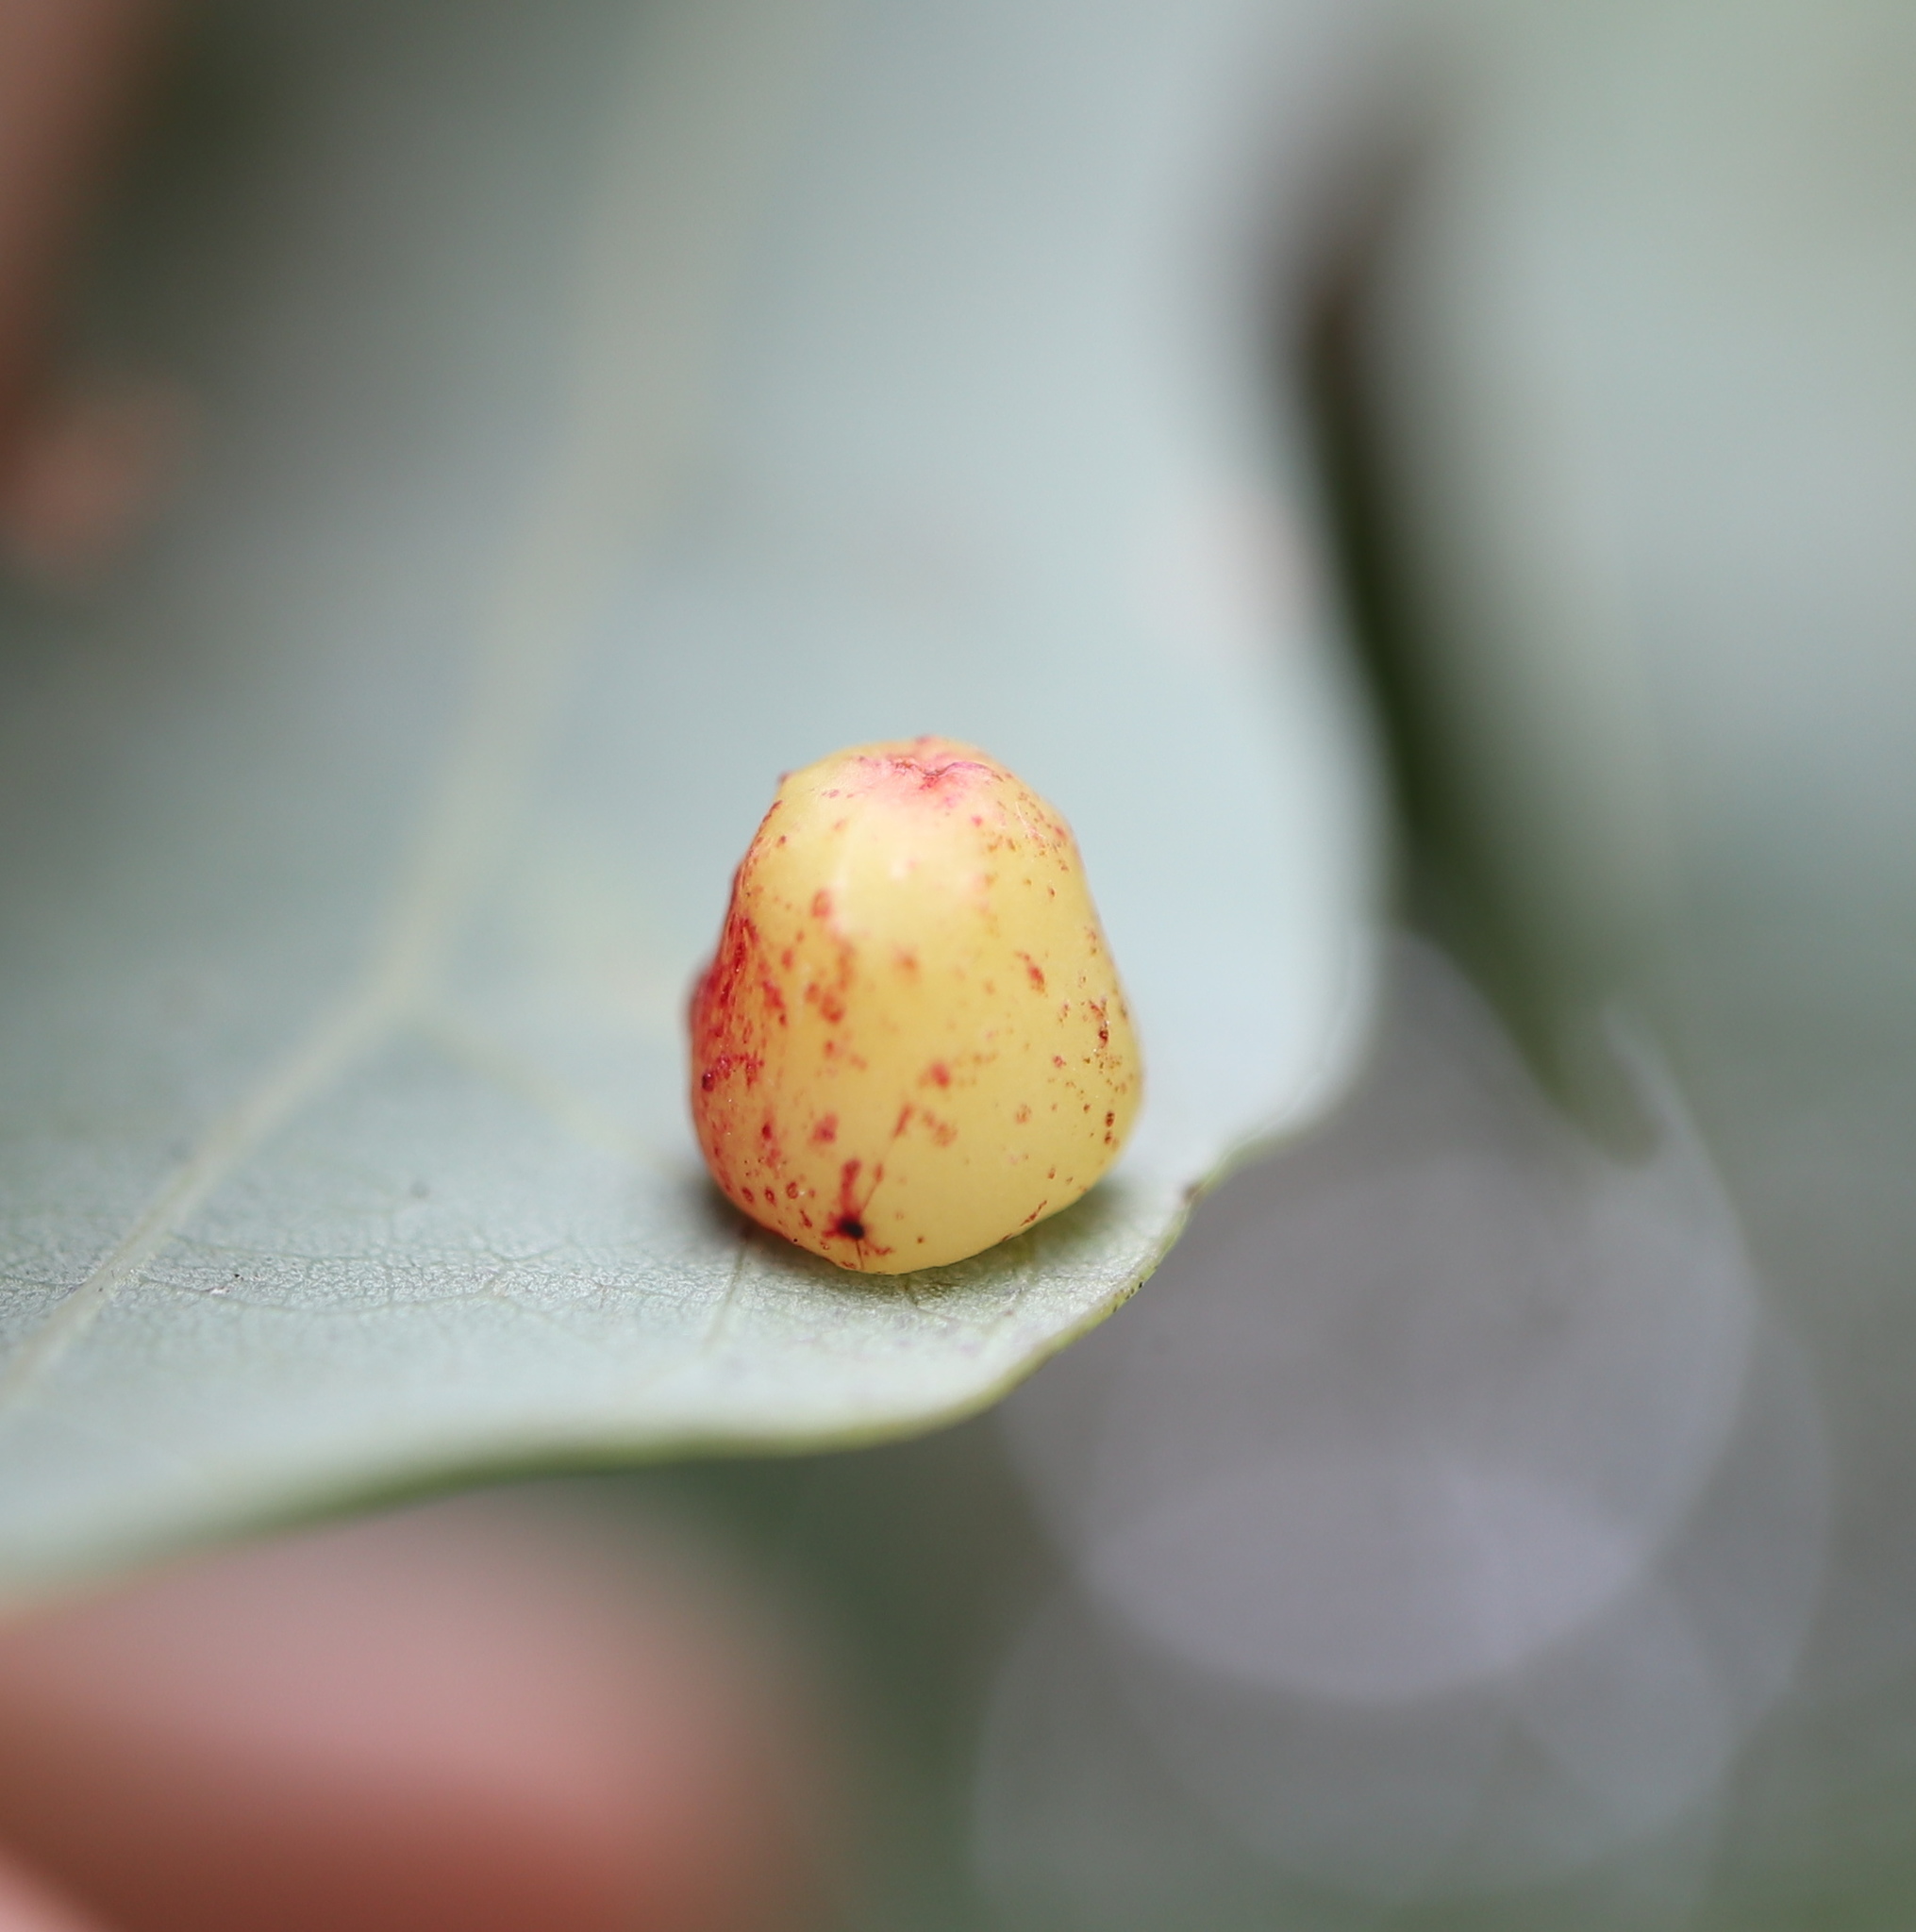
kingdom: Animalia
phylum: Arthropoda
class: Insecta
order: Hymenoptera
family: Cynipidae
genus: Andricus
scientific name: Andricus
